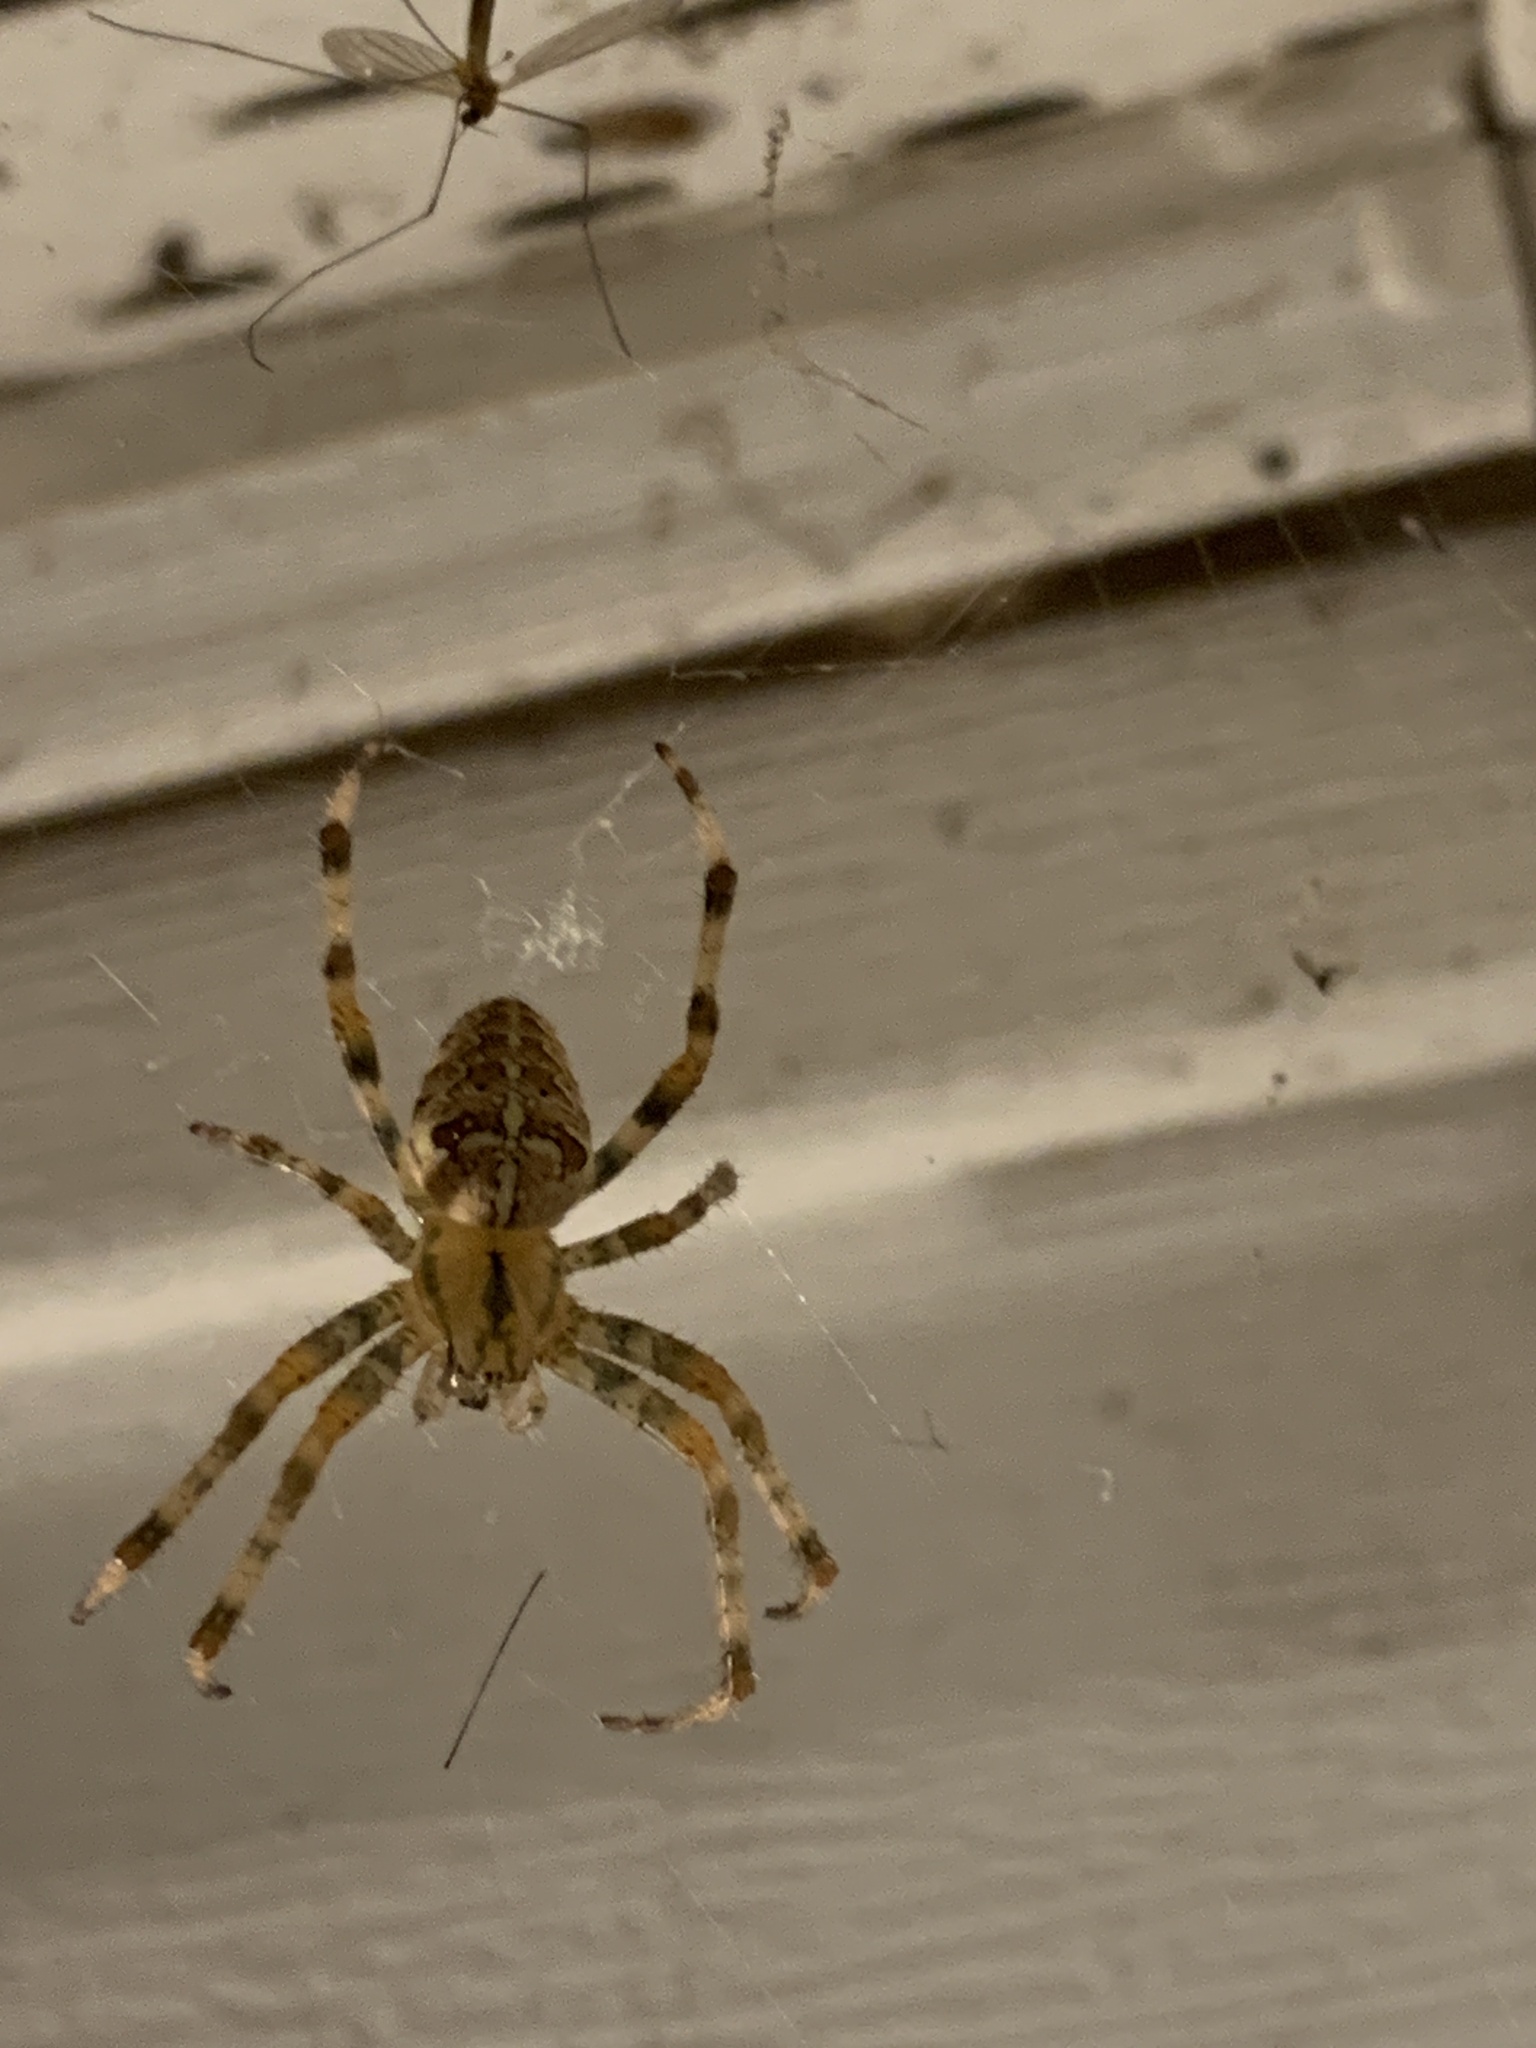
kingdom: Animalia
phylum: Arthropoda
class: Arachnida
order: Araneae
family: Araneidae
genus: Araneus
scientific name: Araneus diadematus
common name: Cross orbweaver
